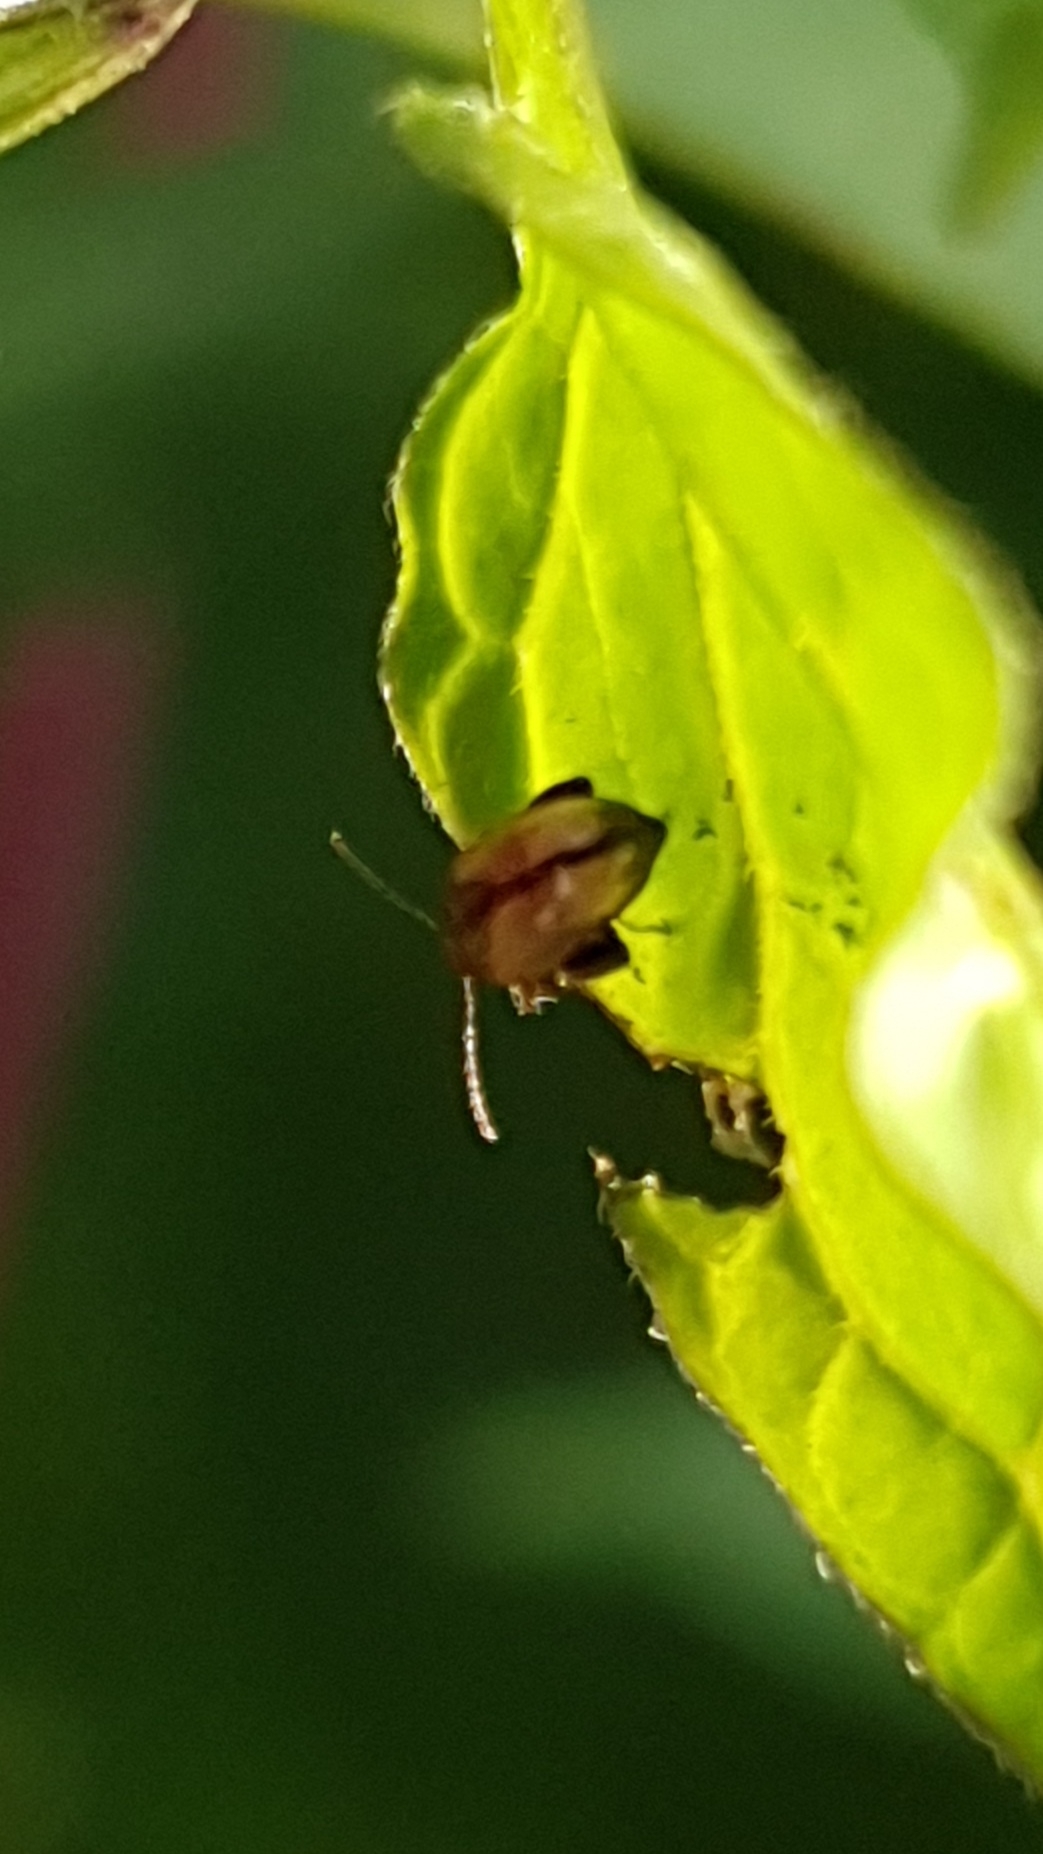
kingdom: Animalia
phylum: Arthropoda
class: Insecta
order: Coleoptera
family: Chrysomelidae
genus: Psylliodes
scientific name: Psylliodes affinis
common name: Potato flea beetle
